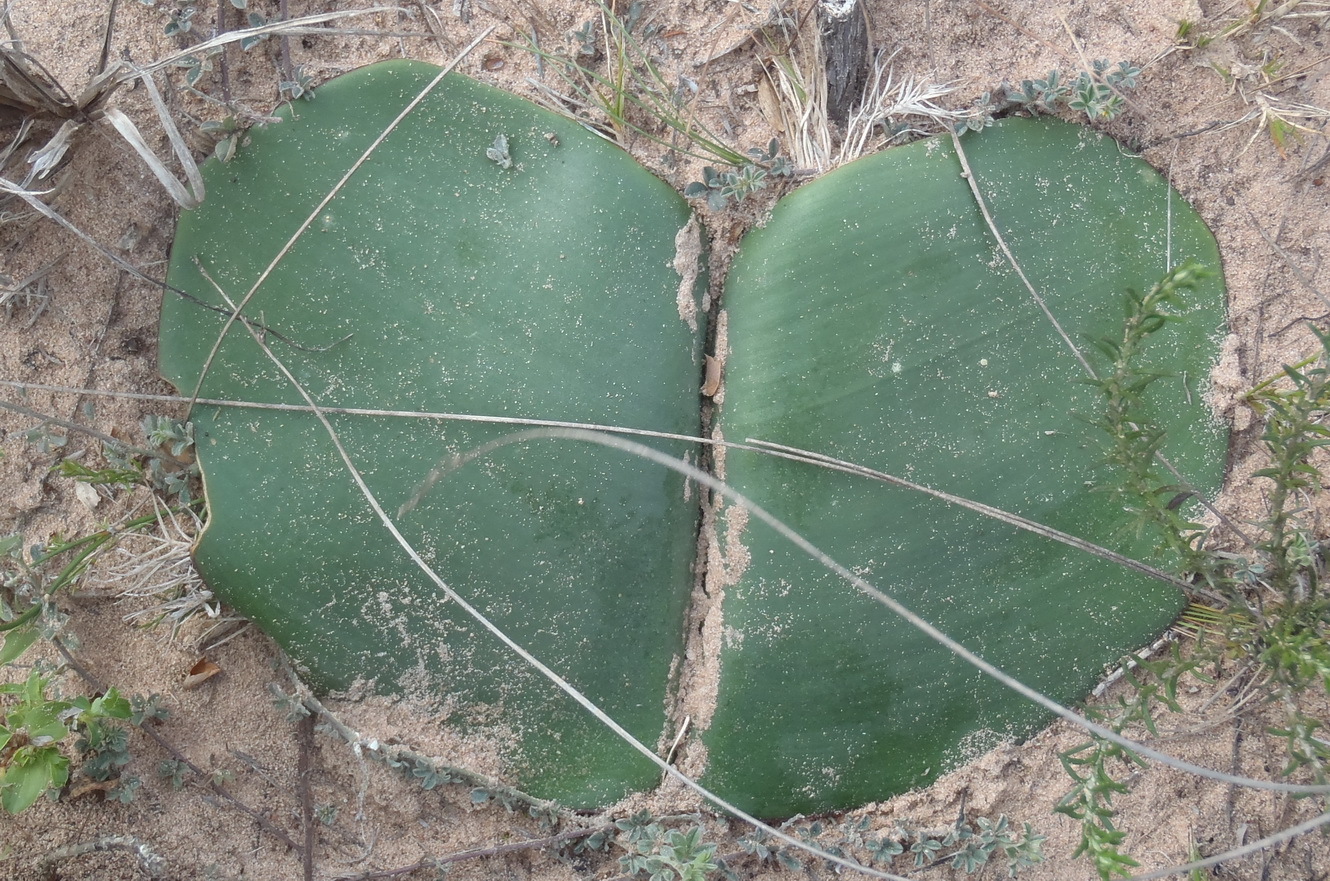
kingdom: Plantae
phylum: Tracheophyta
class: Liliopsida
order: Asparagales
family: Amaryllidaceae
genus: Haemanthus
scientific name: Haemanthus sanguineus
